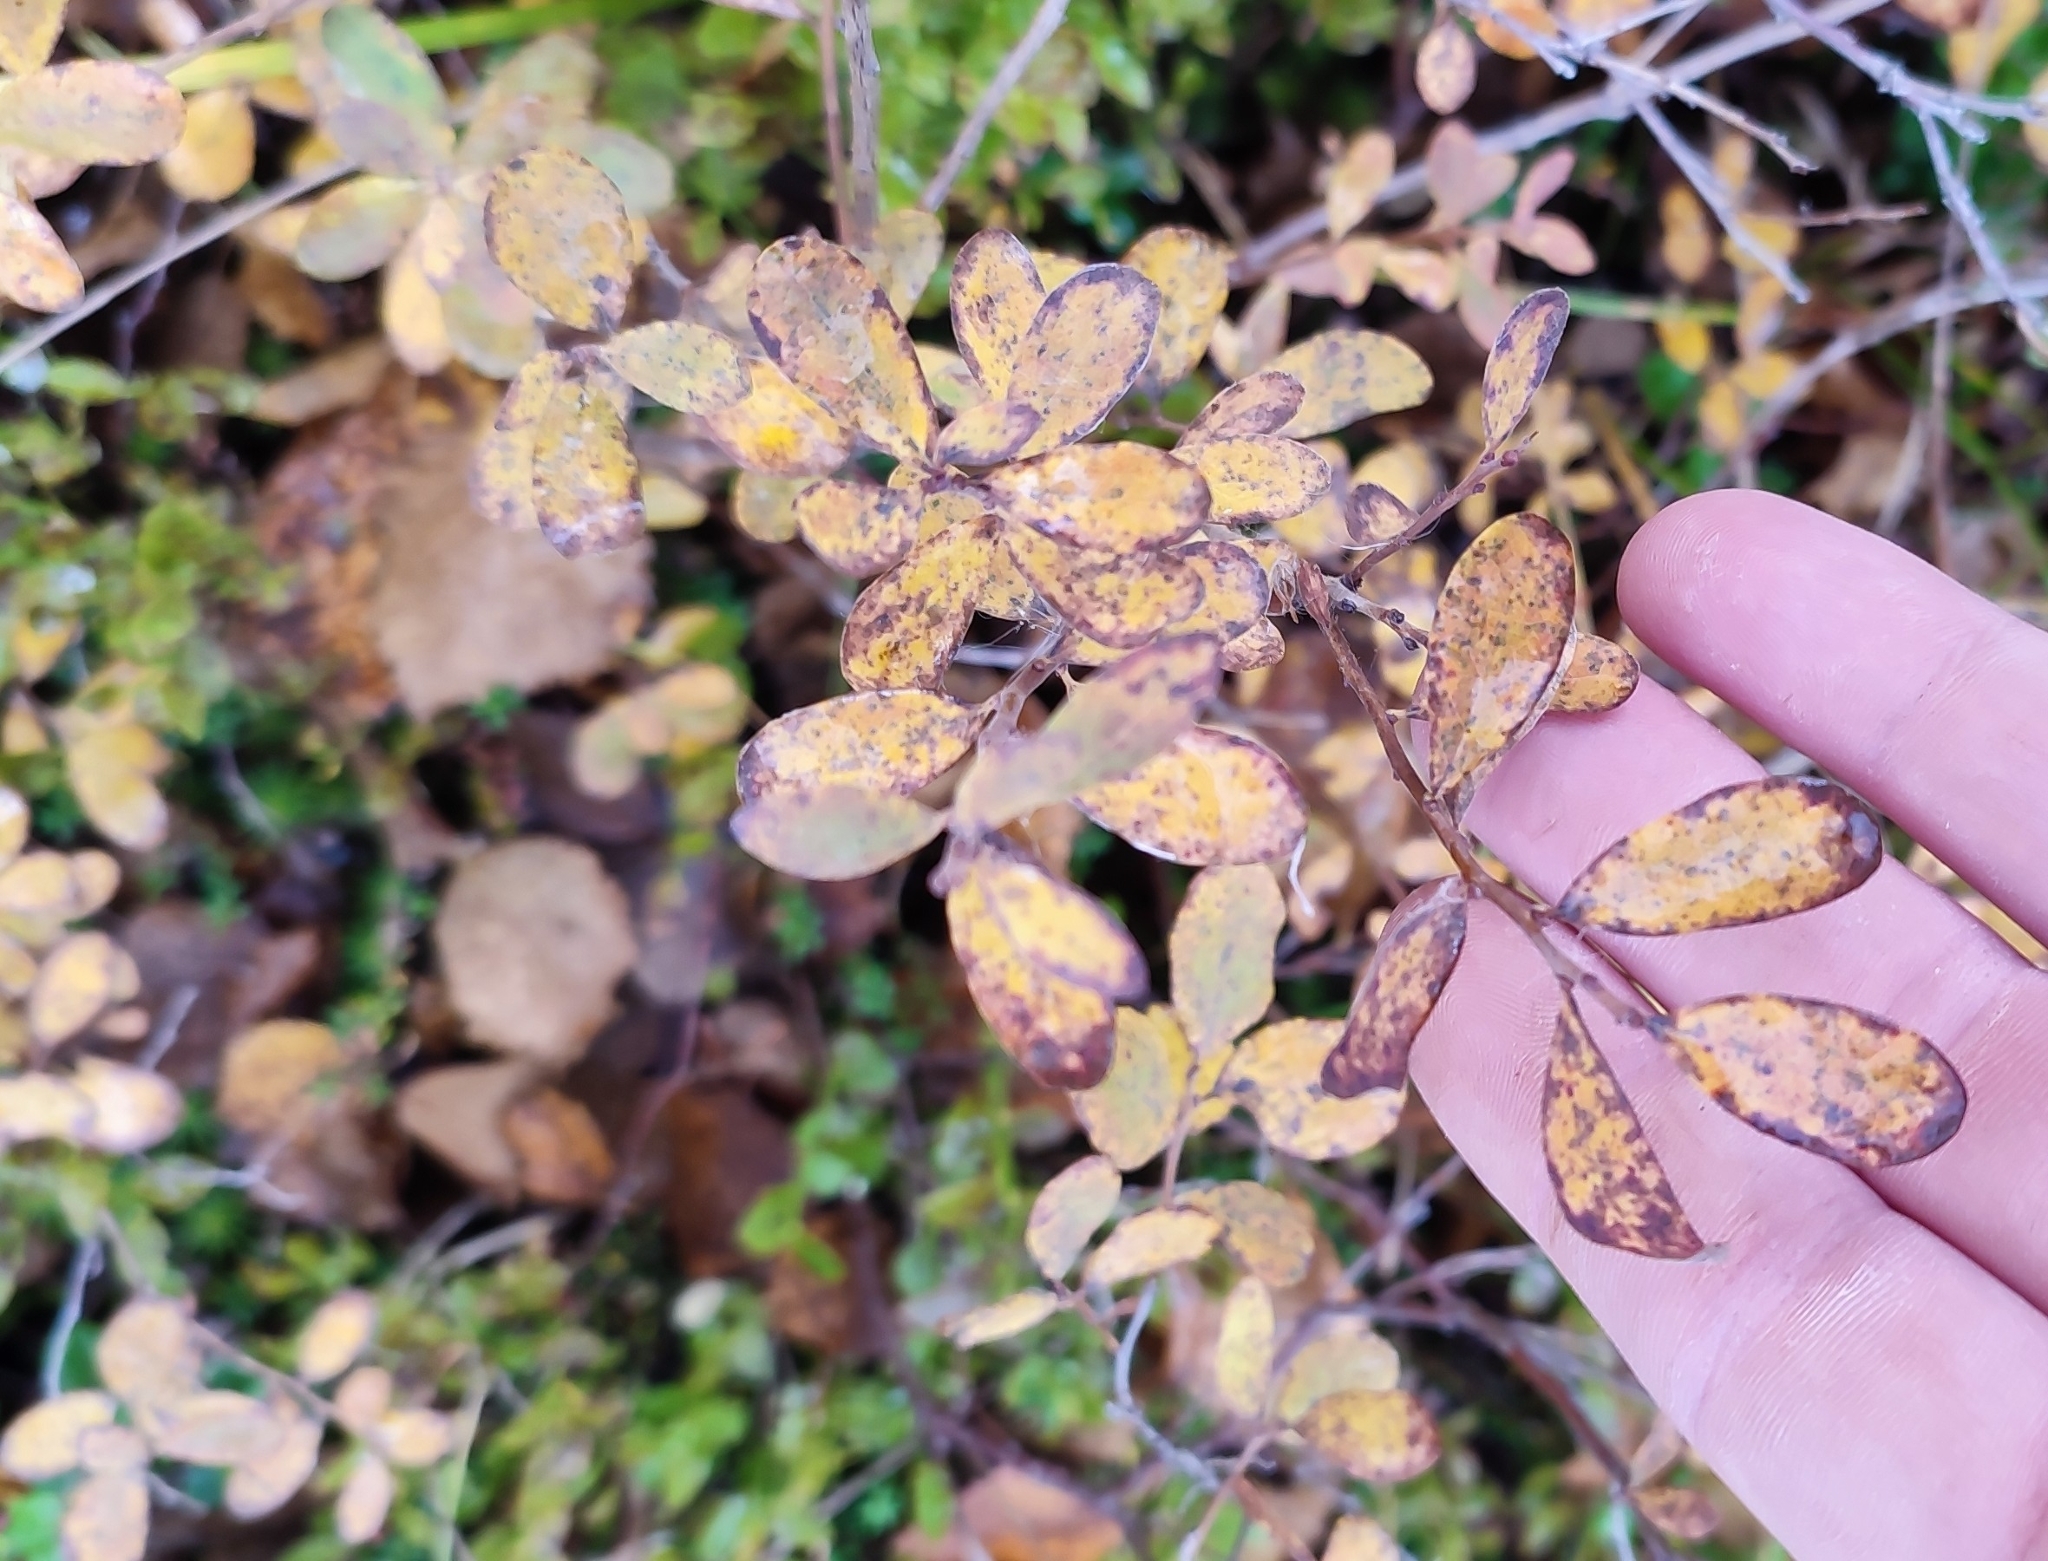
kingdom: Plantae
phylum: Tracheophyta
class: Magnoliopsida
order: Ericales
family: Ericaceae
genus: Vaccinium
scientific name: Vaccinium uliginosum
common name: Bog bilberry
